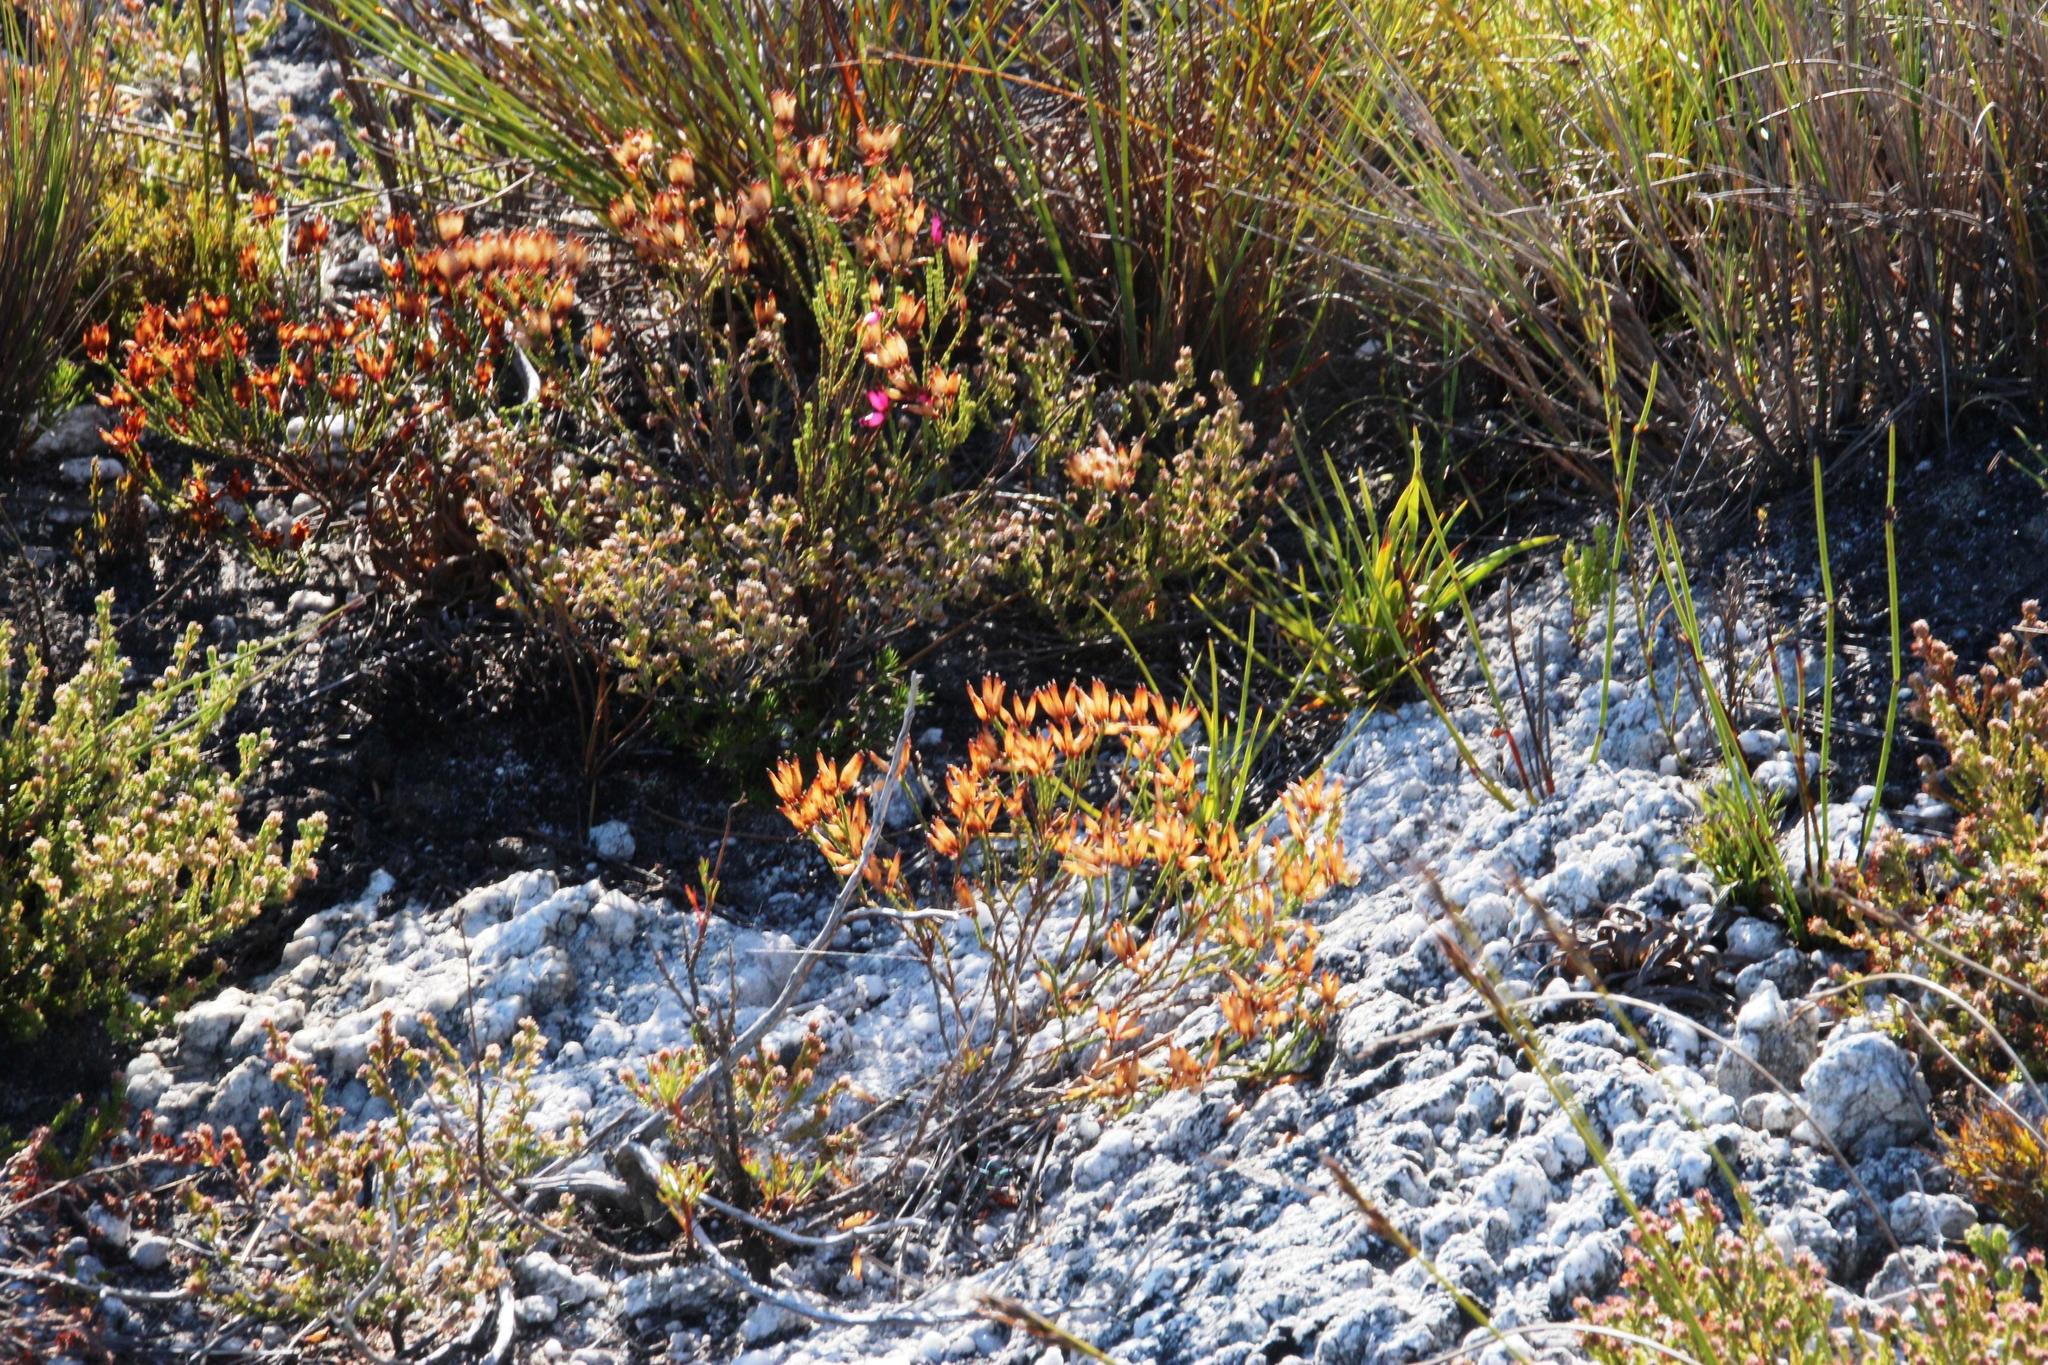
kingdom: Plantae
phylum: Tracheophyta
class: Magnoliopsida
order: Ericales
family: Ericaceae
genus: Erica
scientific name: Erica cristata
